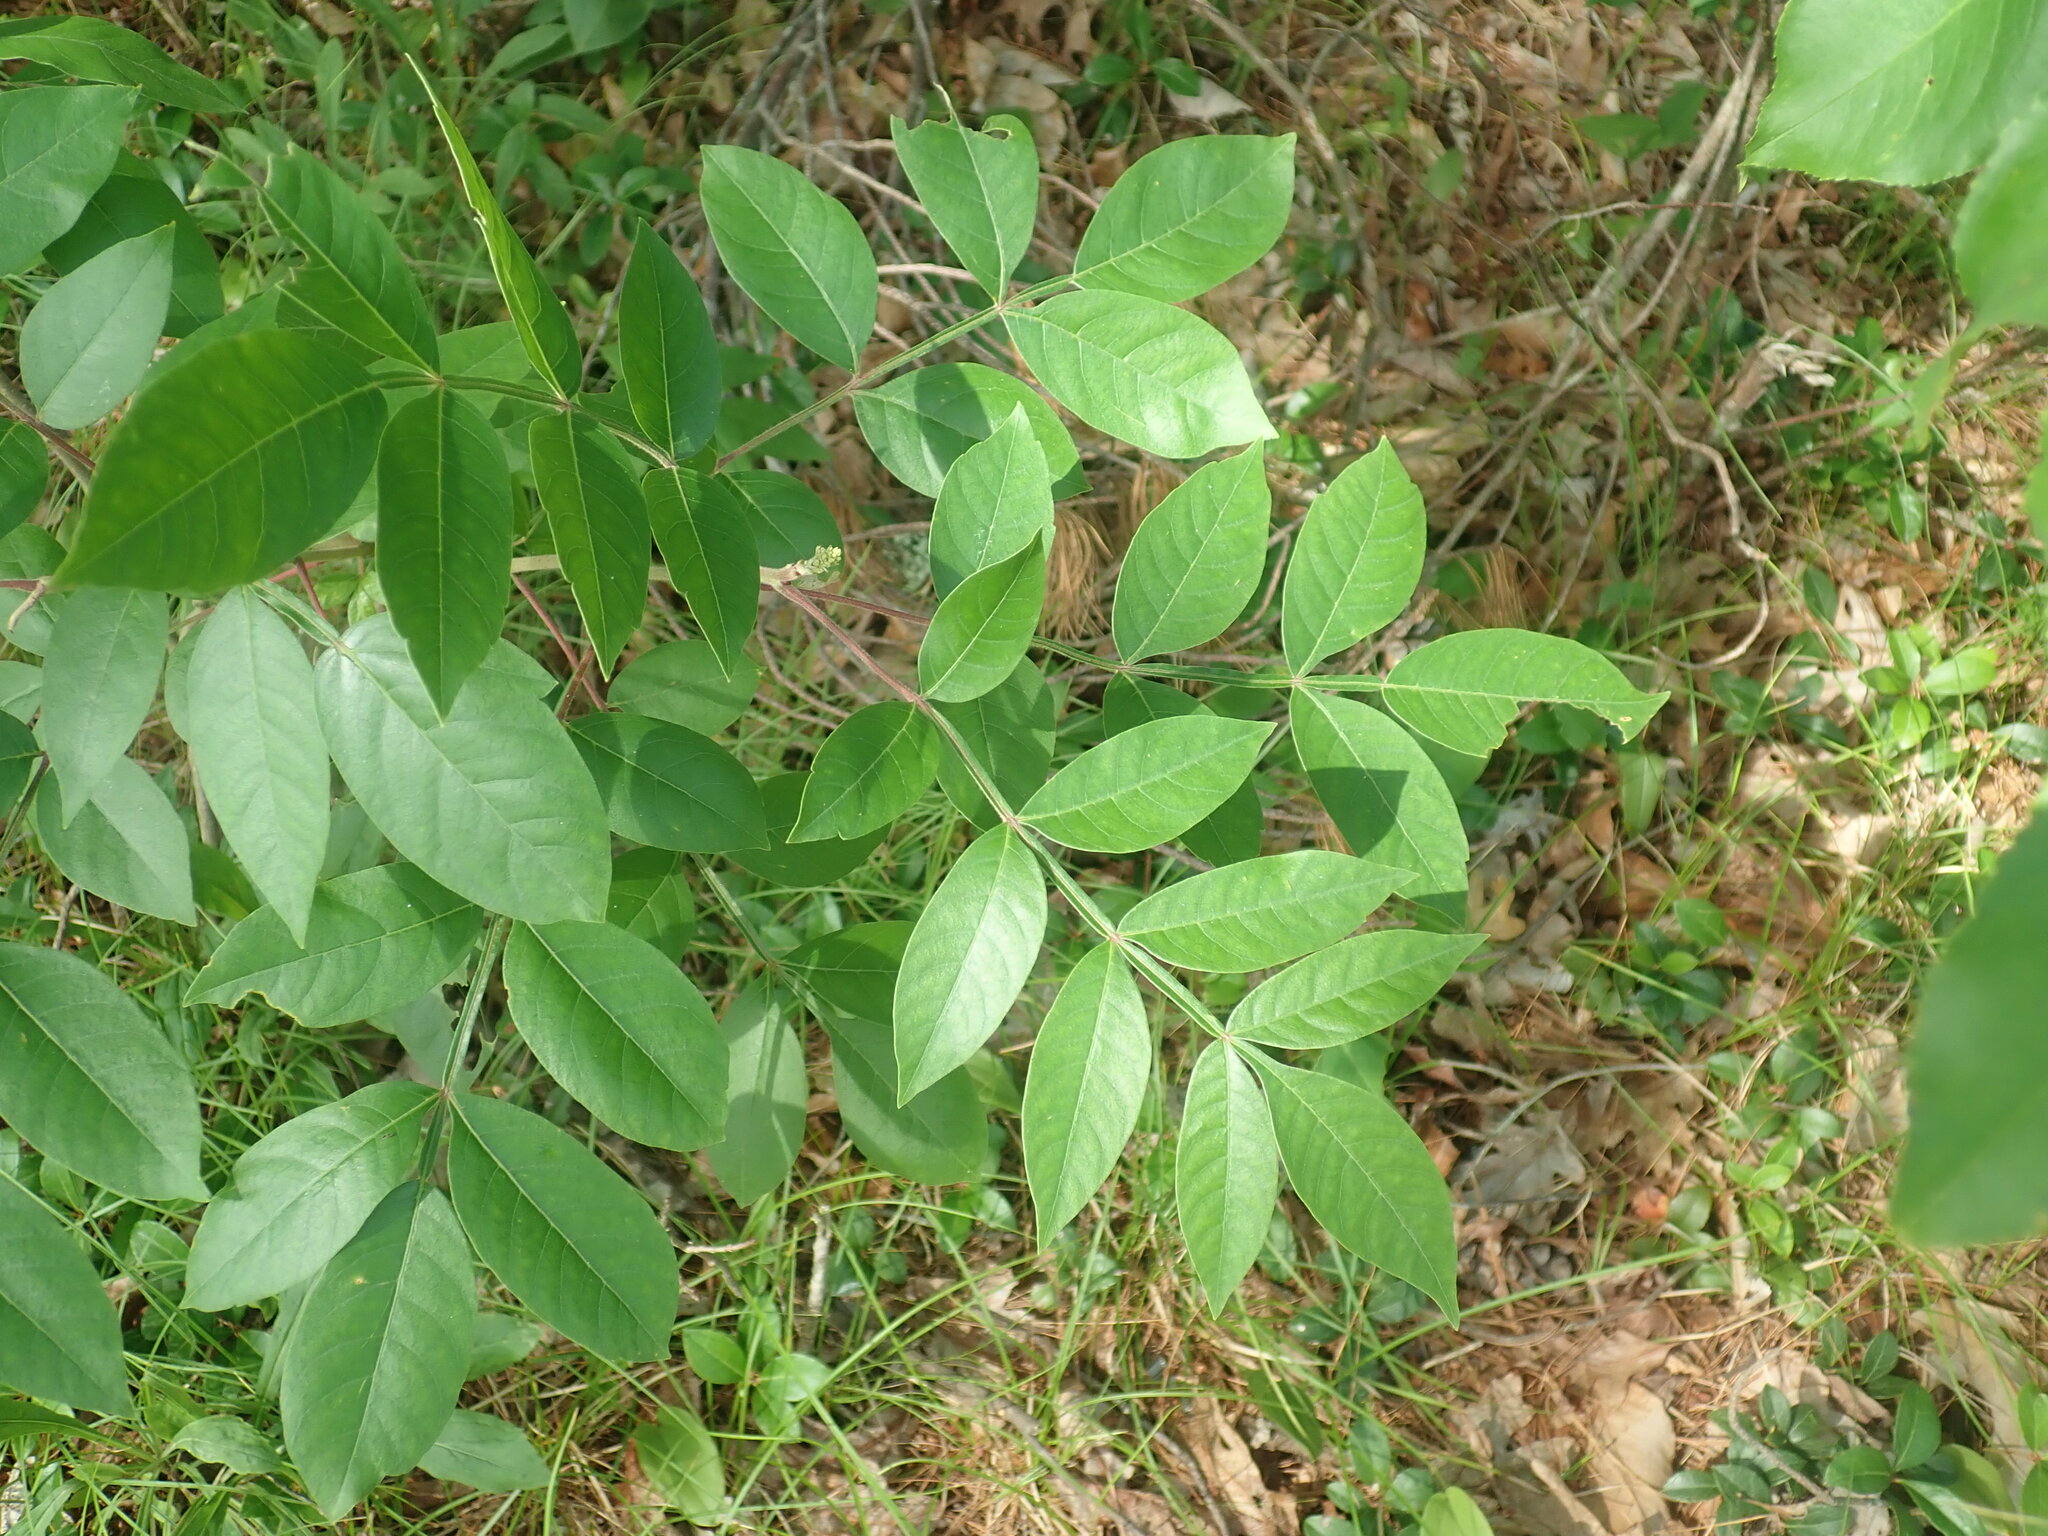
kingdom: Plantae
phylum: Tracheophyta
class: Magnoliopsida
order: Sapindales
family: Anacardiaceae
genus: Rhus
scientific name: Rhus copallina
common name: Shining sumac
